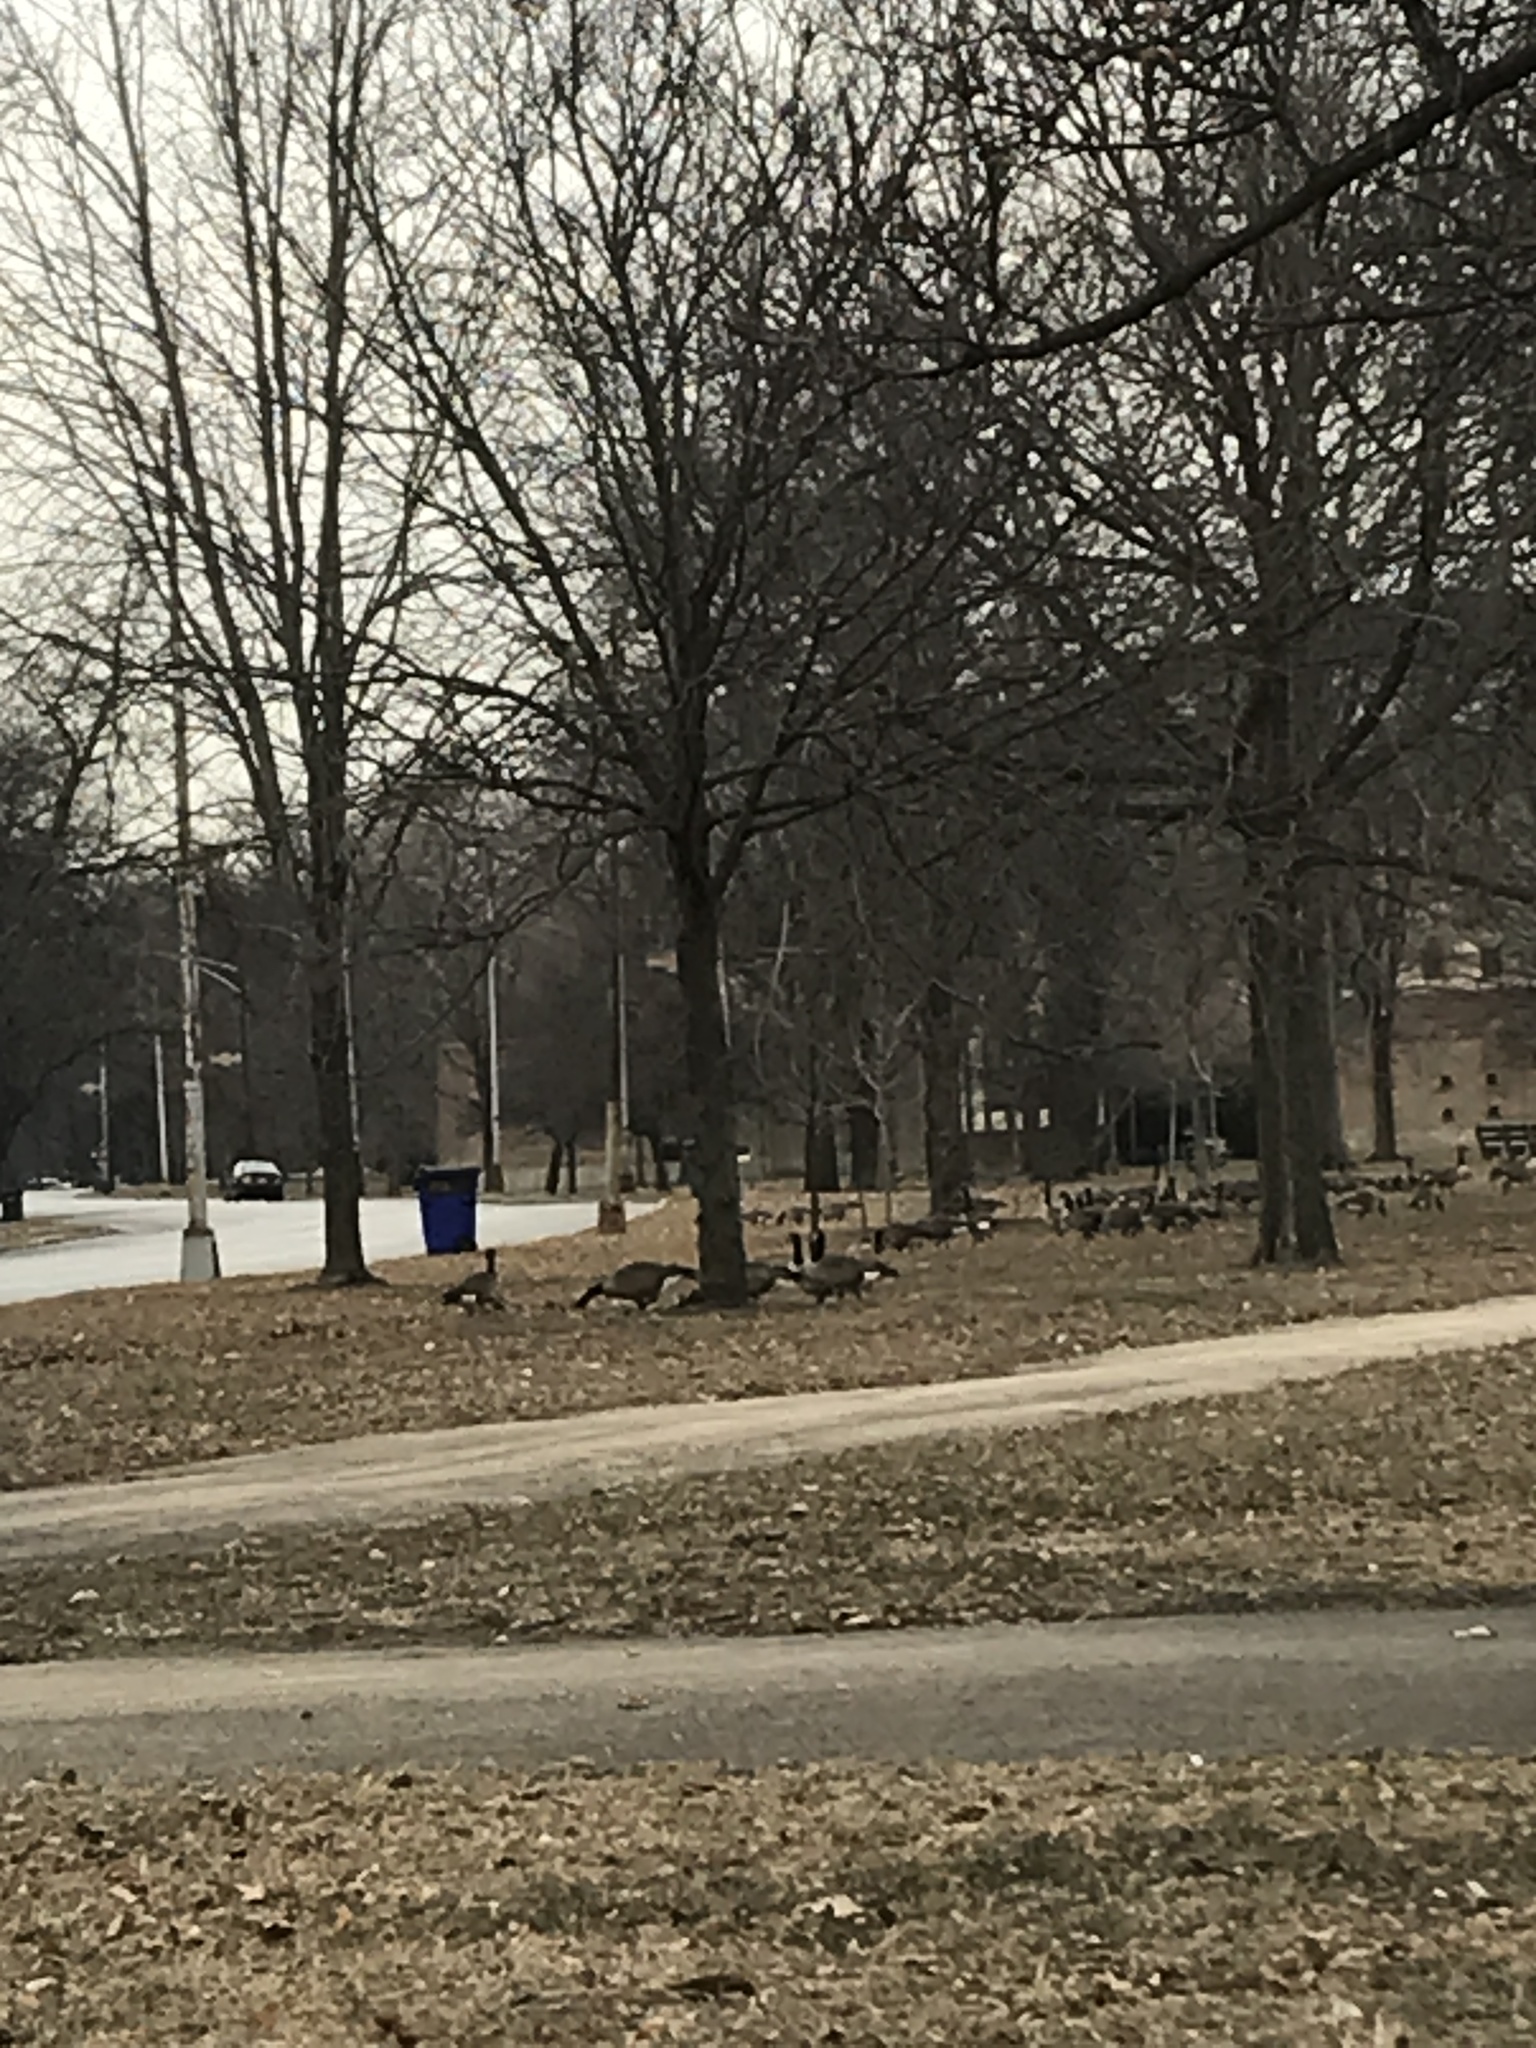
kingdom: Animalia
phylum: Chordata
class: Aves
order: Anseriformes
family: Anatidae
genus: Branta
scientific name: Branta canadensis
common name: Canada goose
